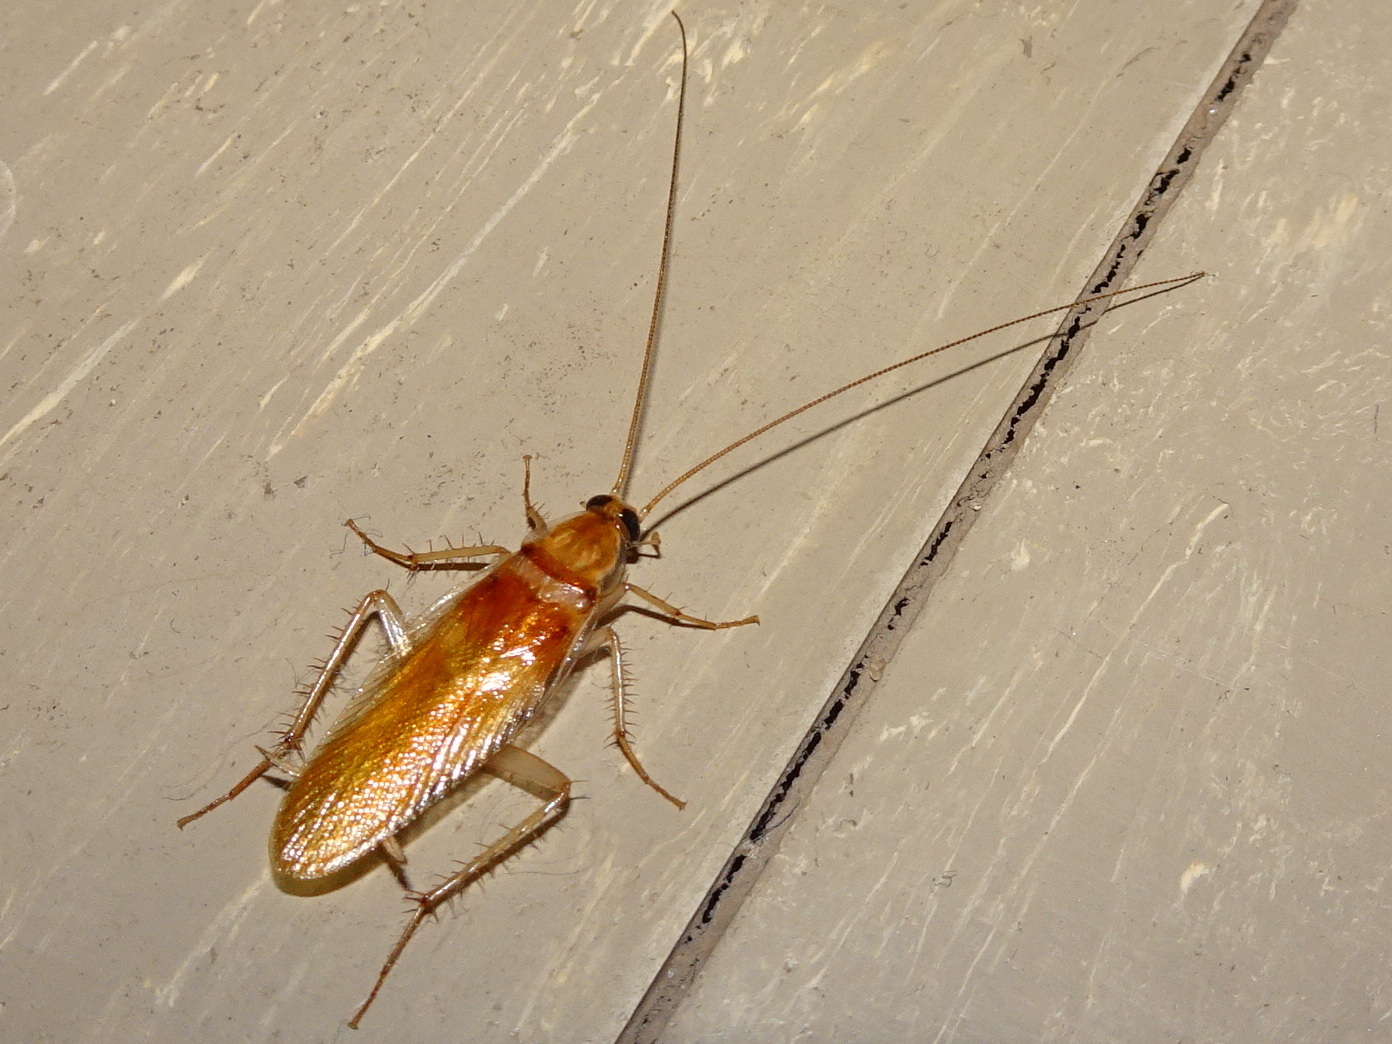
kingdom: Animalia
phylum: Arthropoda
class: Insecta
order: Blattodea
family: Ectobiidae
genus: Supella
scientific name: Supella longipalpa
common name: Brown-banded cockroach
